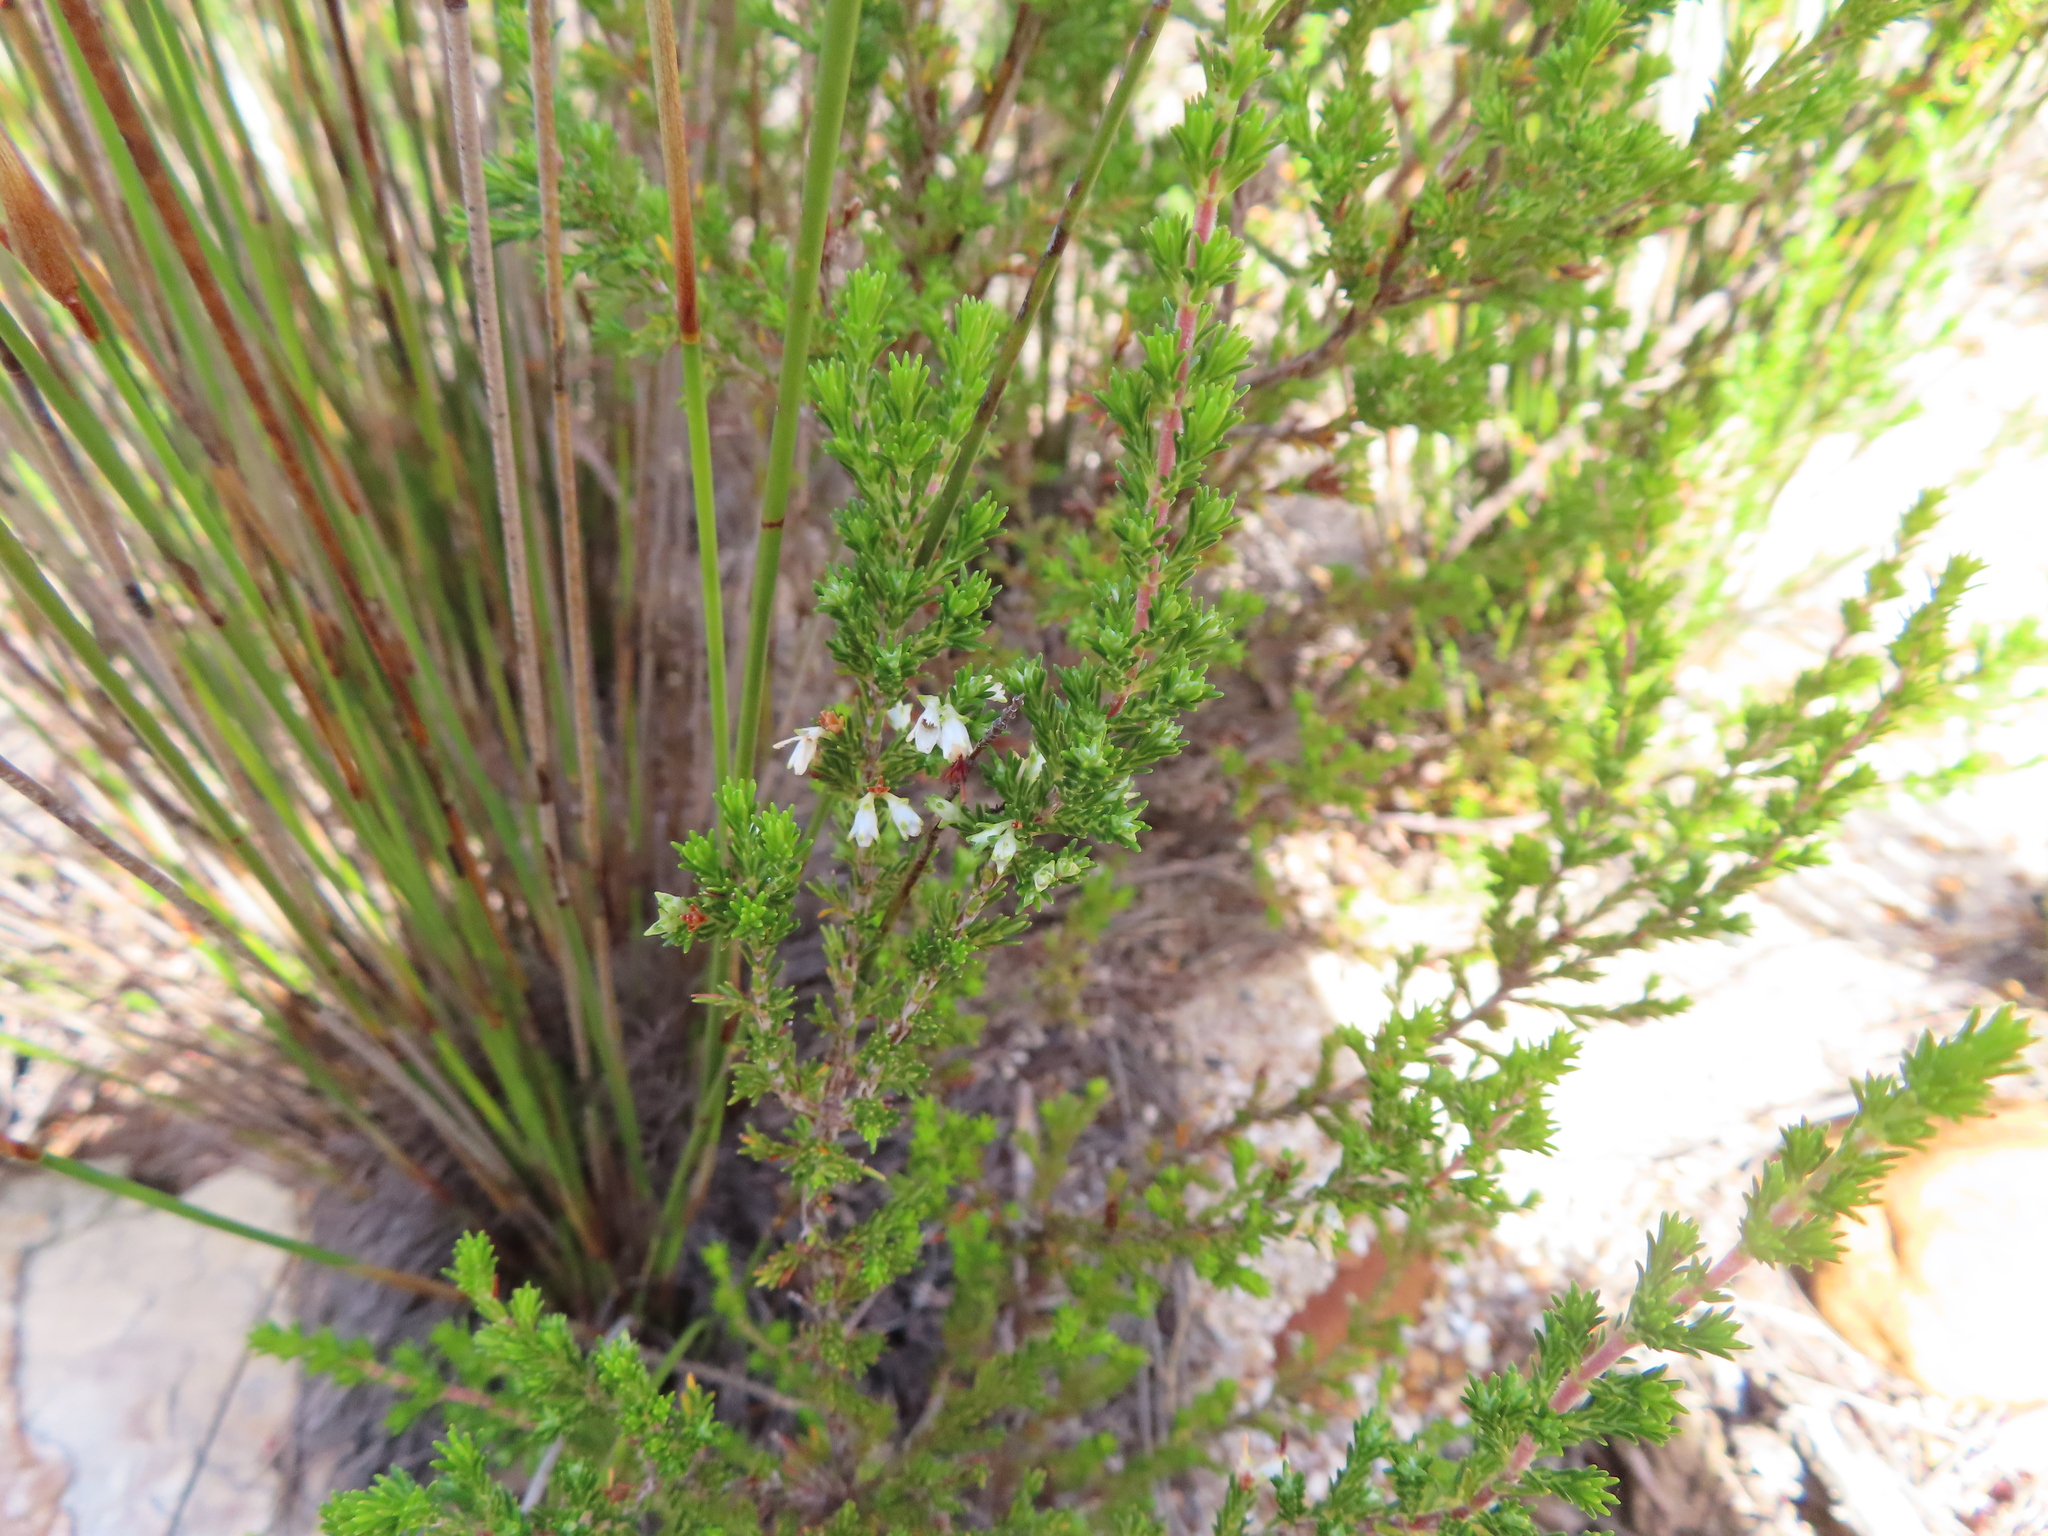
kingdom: Plantae
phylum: Tracheophyta
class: Magnoliopsida
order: Ericales
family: Ericaceae
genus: Erica
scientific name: Erica imbricata
